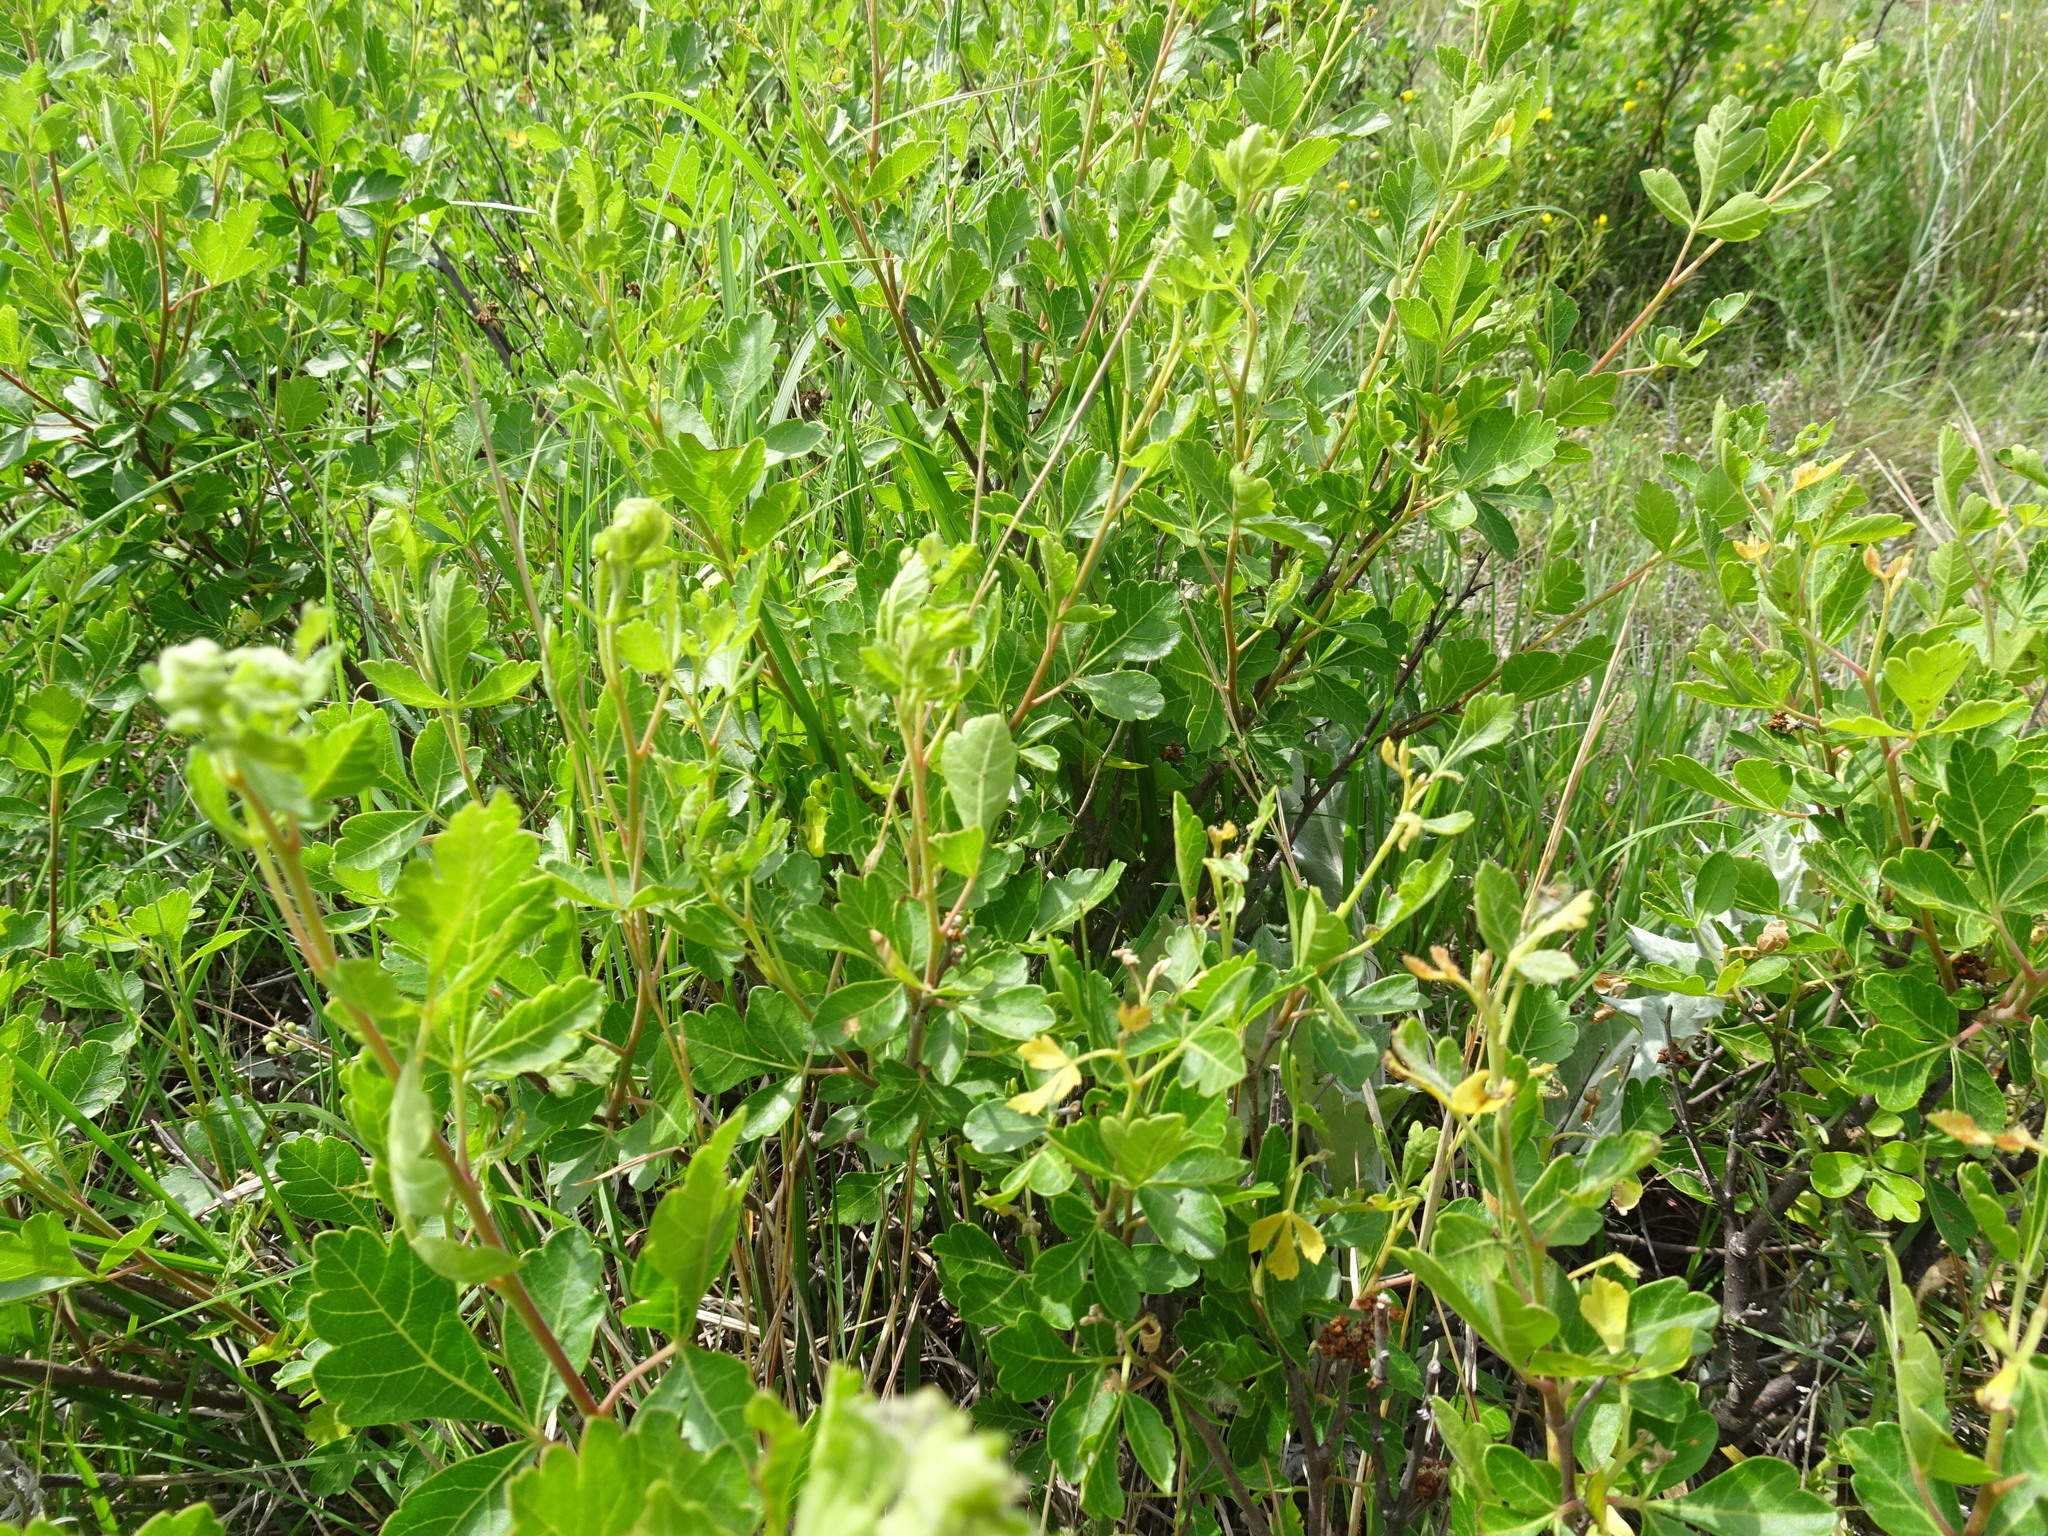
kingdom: Plantae
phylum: Tracheophyta
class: Magnoliopsida
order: Sapindales
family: Anacardiaceae
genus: Rhus
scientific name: Rhus aromatica
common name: Aromatic sumac
